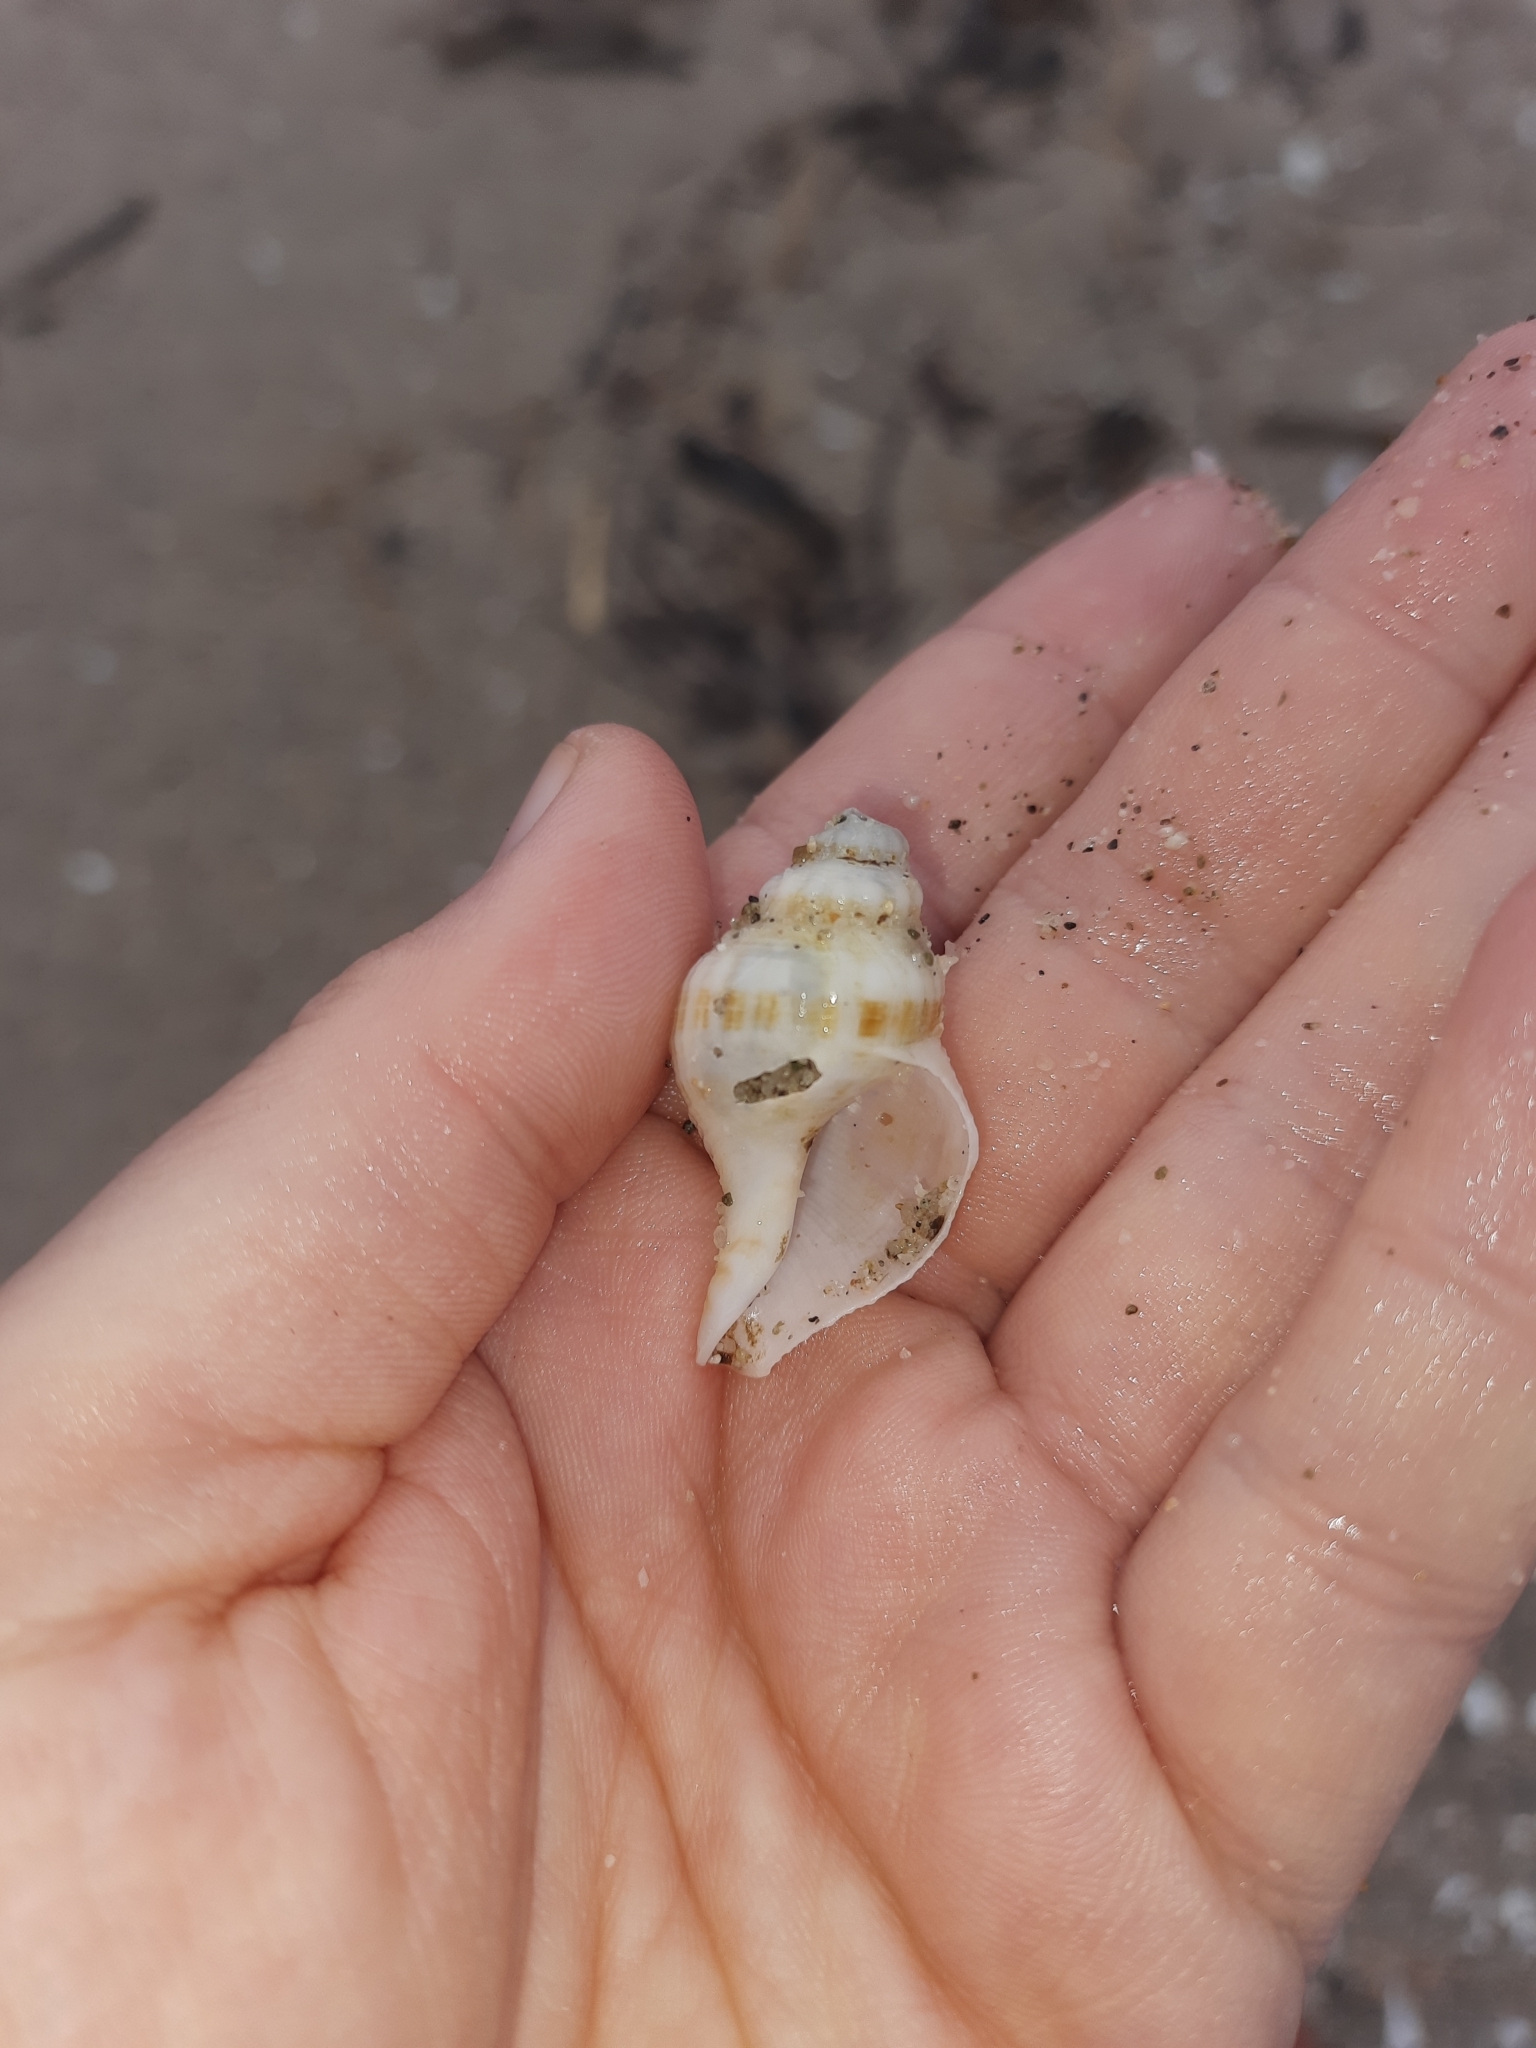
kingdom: Animalia
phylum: Mollusca
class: Gastropoda
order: Neogastropoda
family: Prosiphonidae
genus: Austrofusus
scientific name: Austrofusus glans
